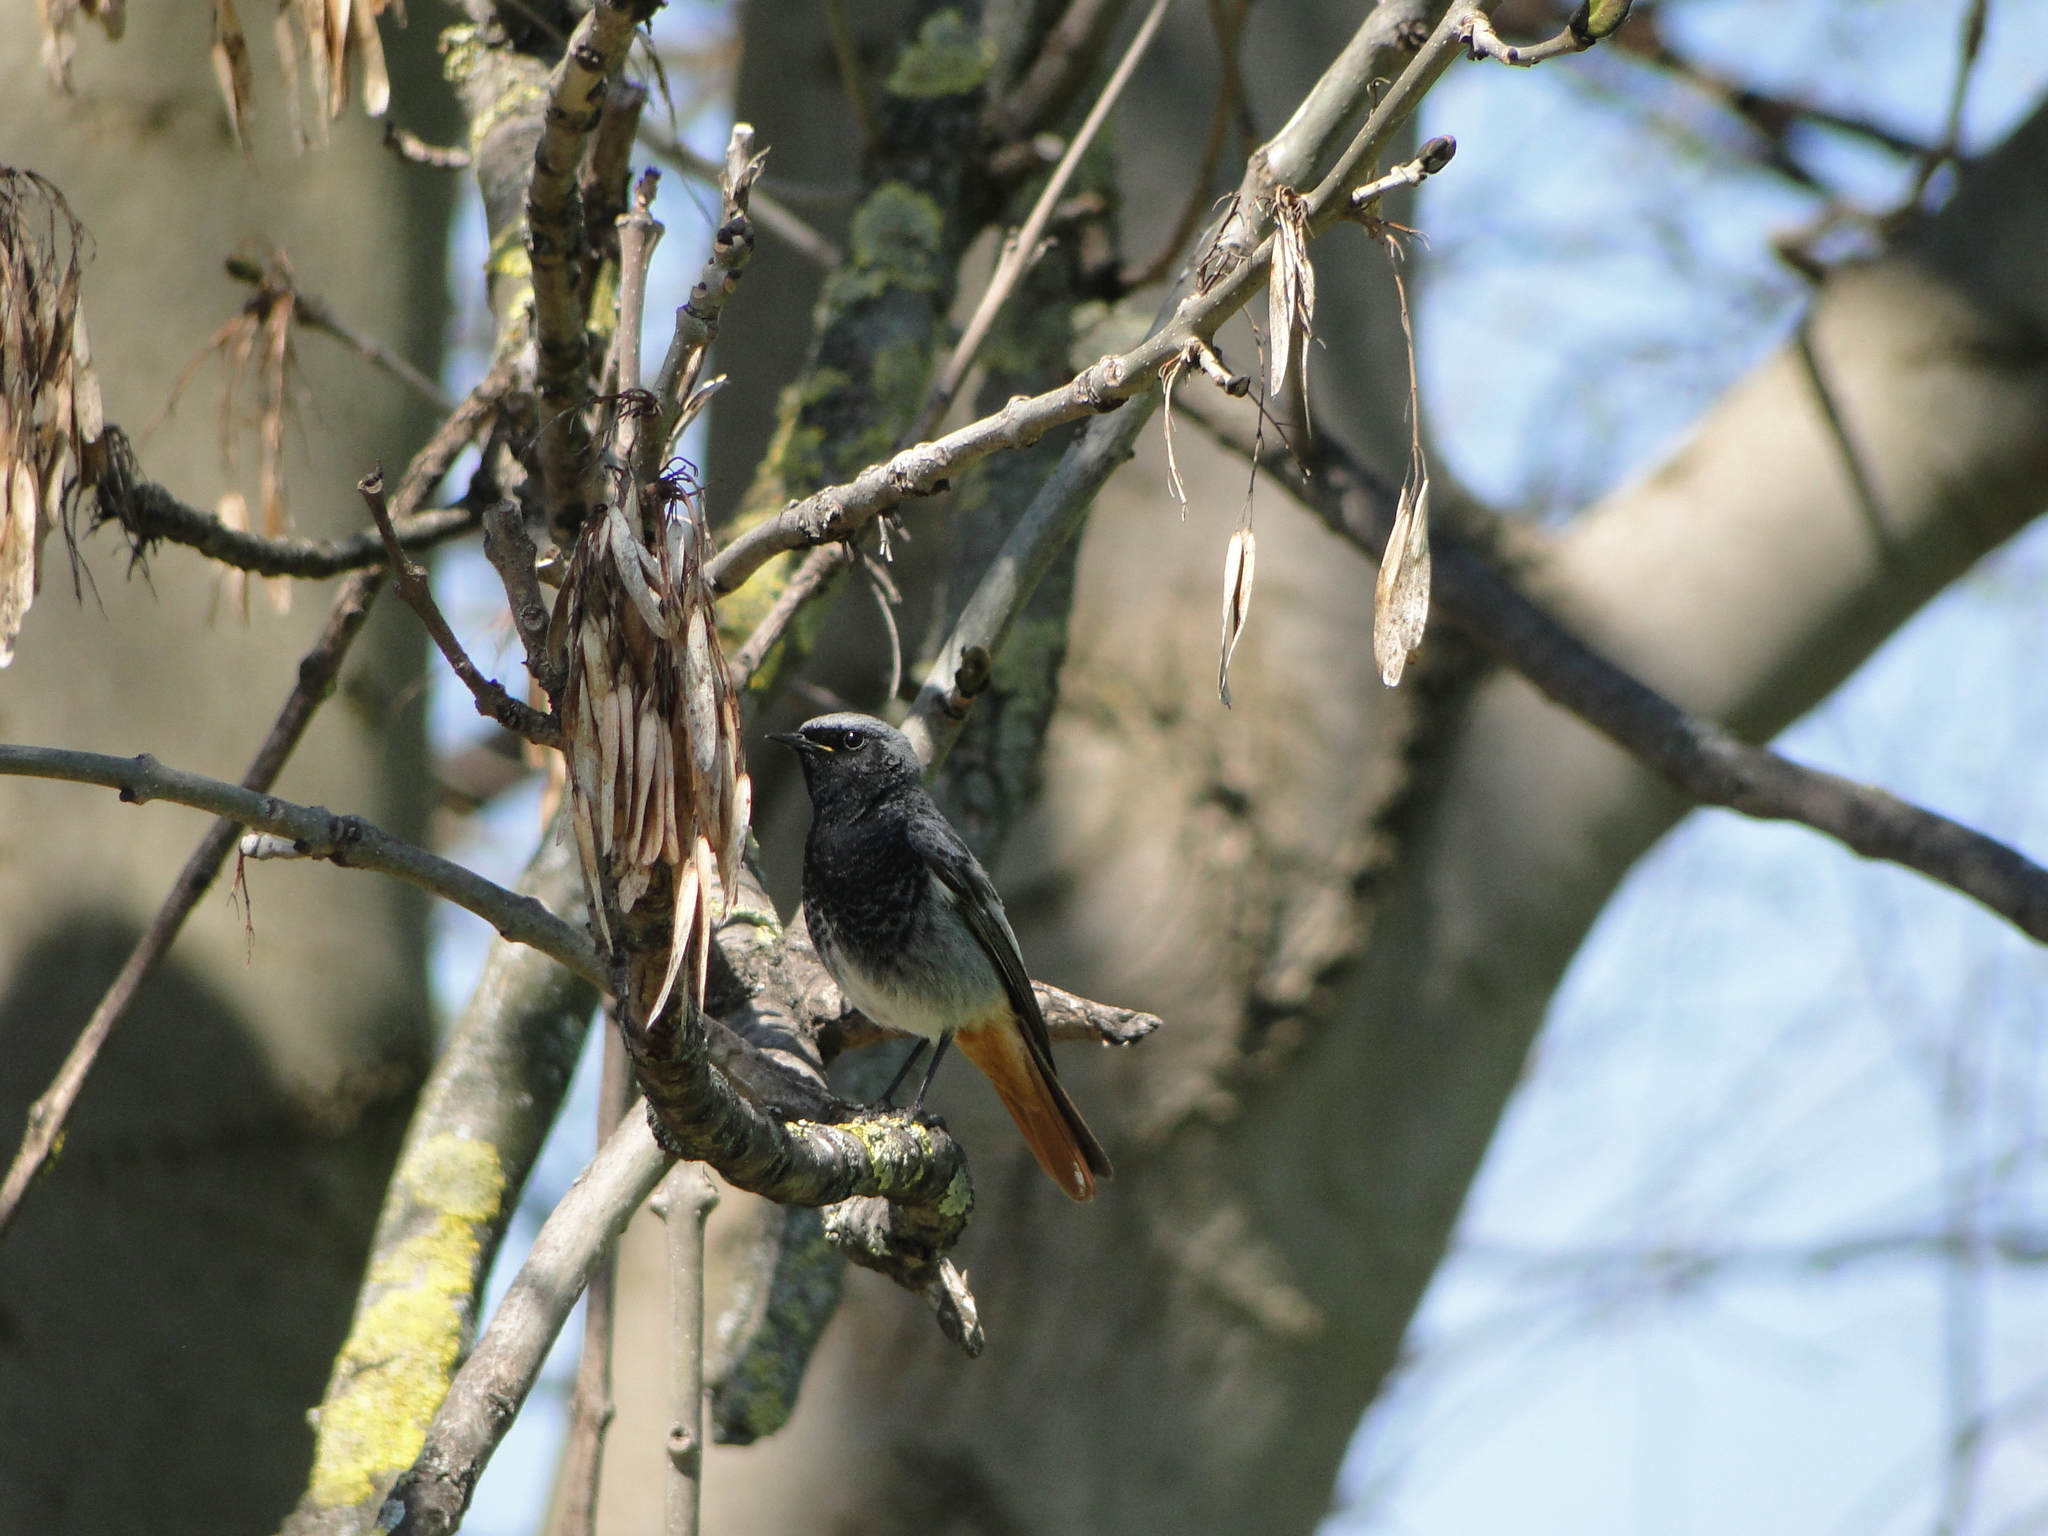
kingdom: Animalia
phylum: Chordata
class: Aves
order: Passeriformes
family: Muscicapidae
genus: Phoenicurus
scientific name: Phoenicurus ochruros
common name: Black redstart
